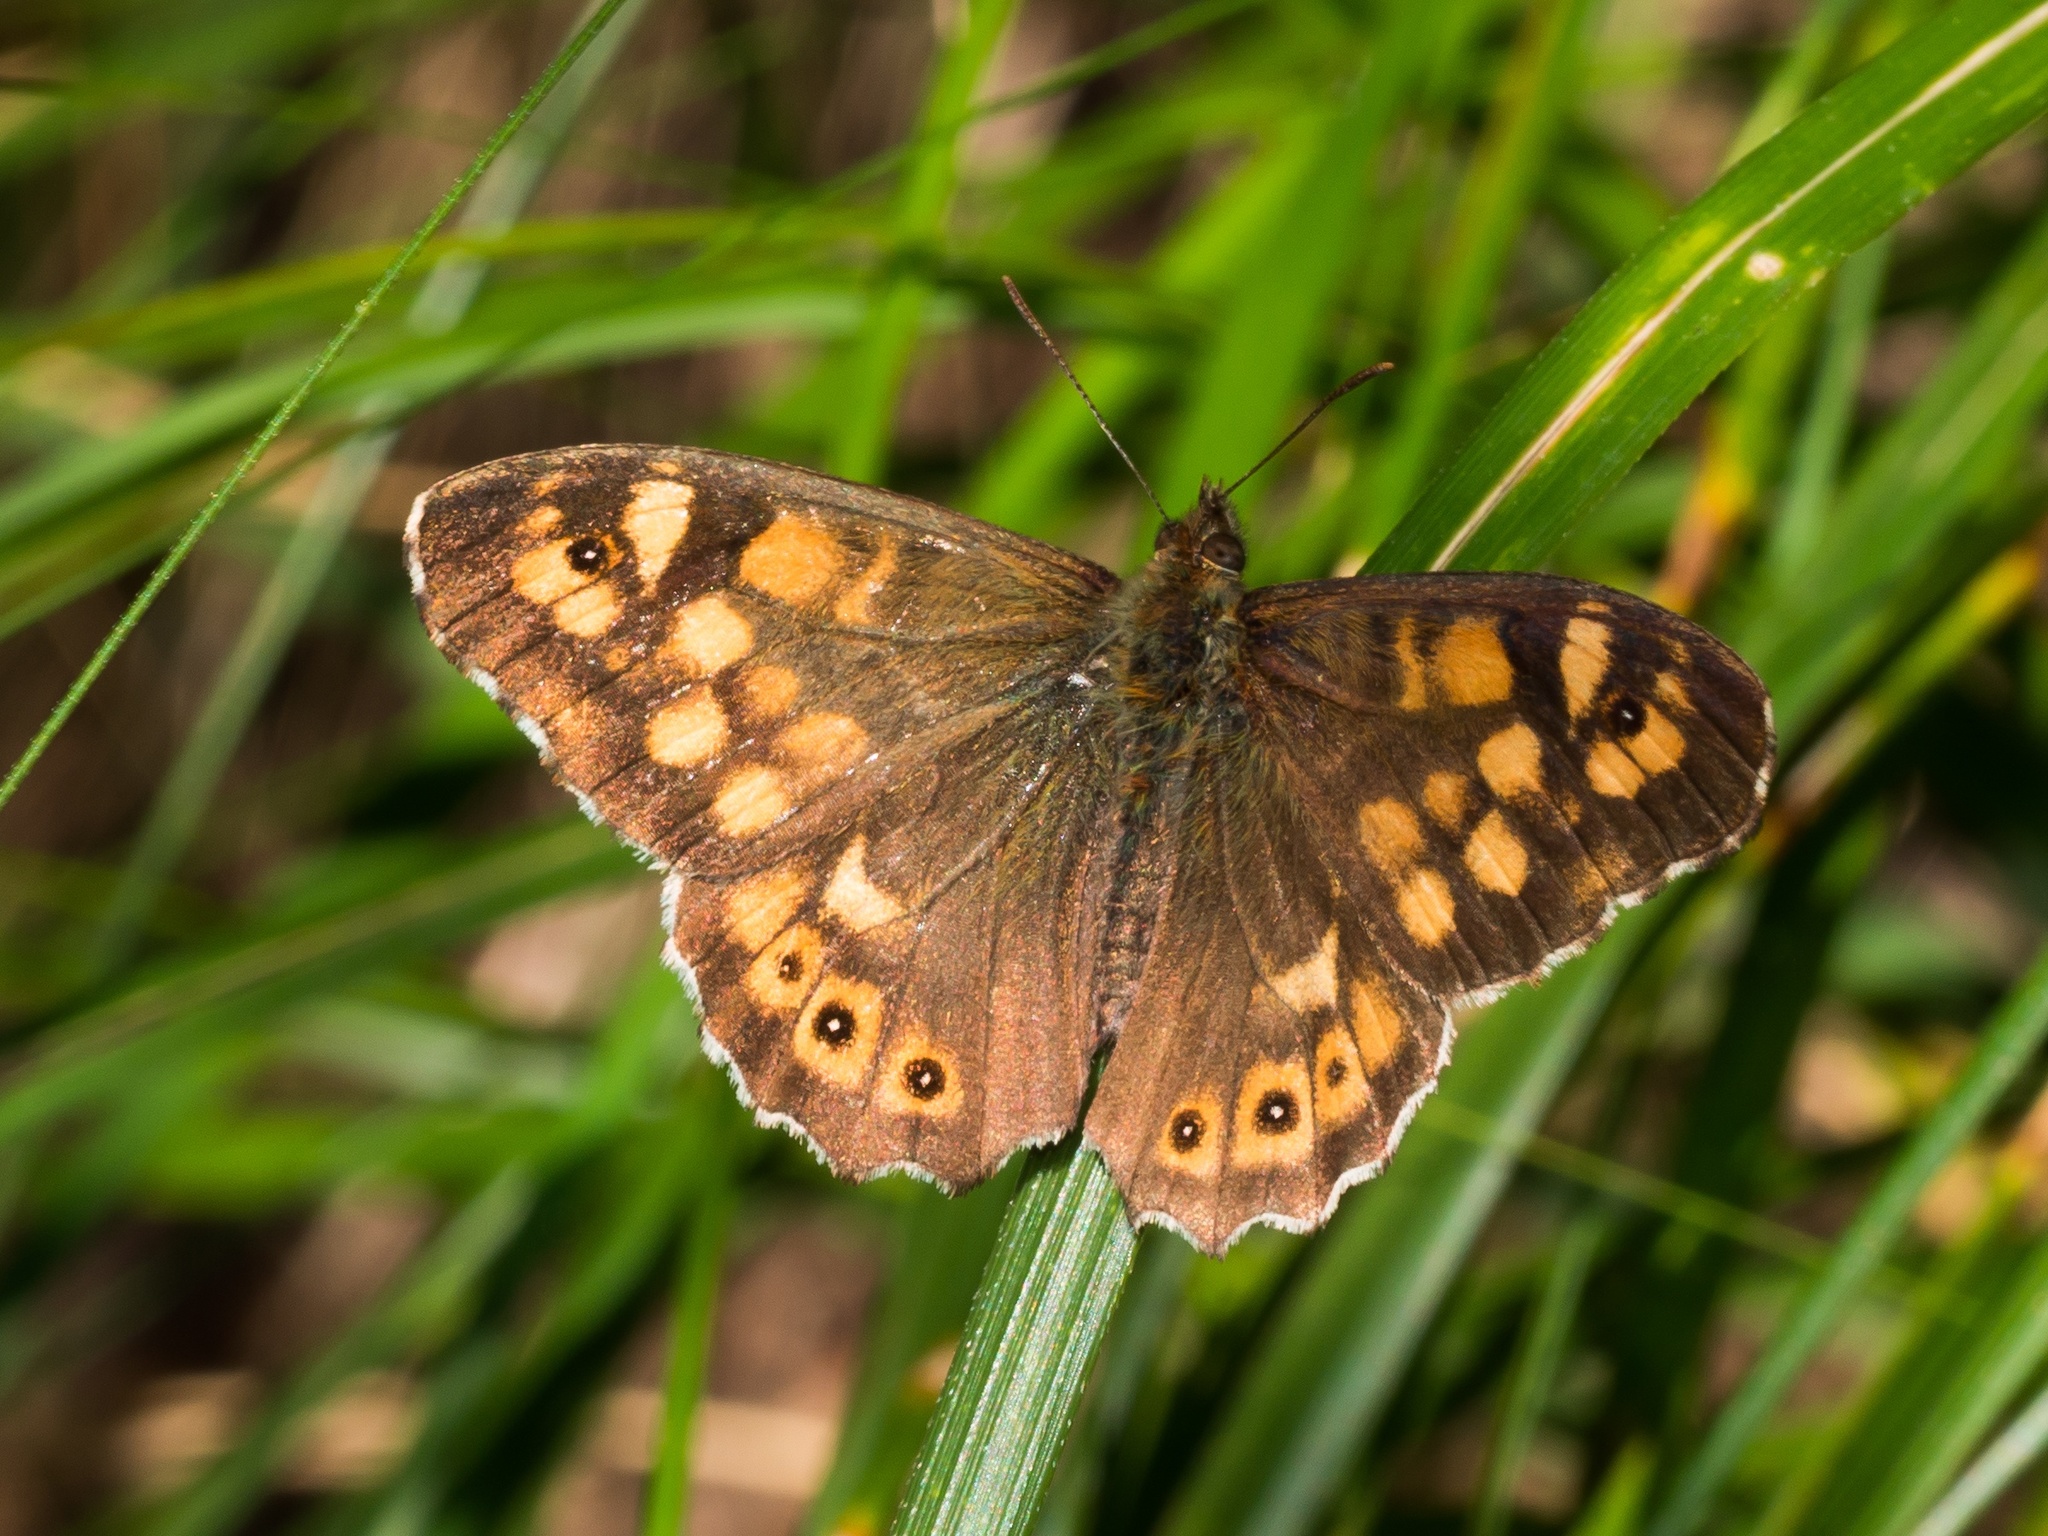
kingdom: Animalia
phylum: Arthropoda
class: Insecta
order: Lepidoptera
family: Nymphalidae
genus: Pararge
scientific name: Pararge aegeria
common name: Speckled wood
